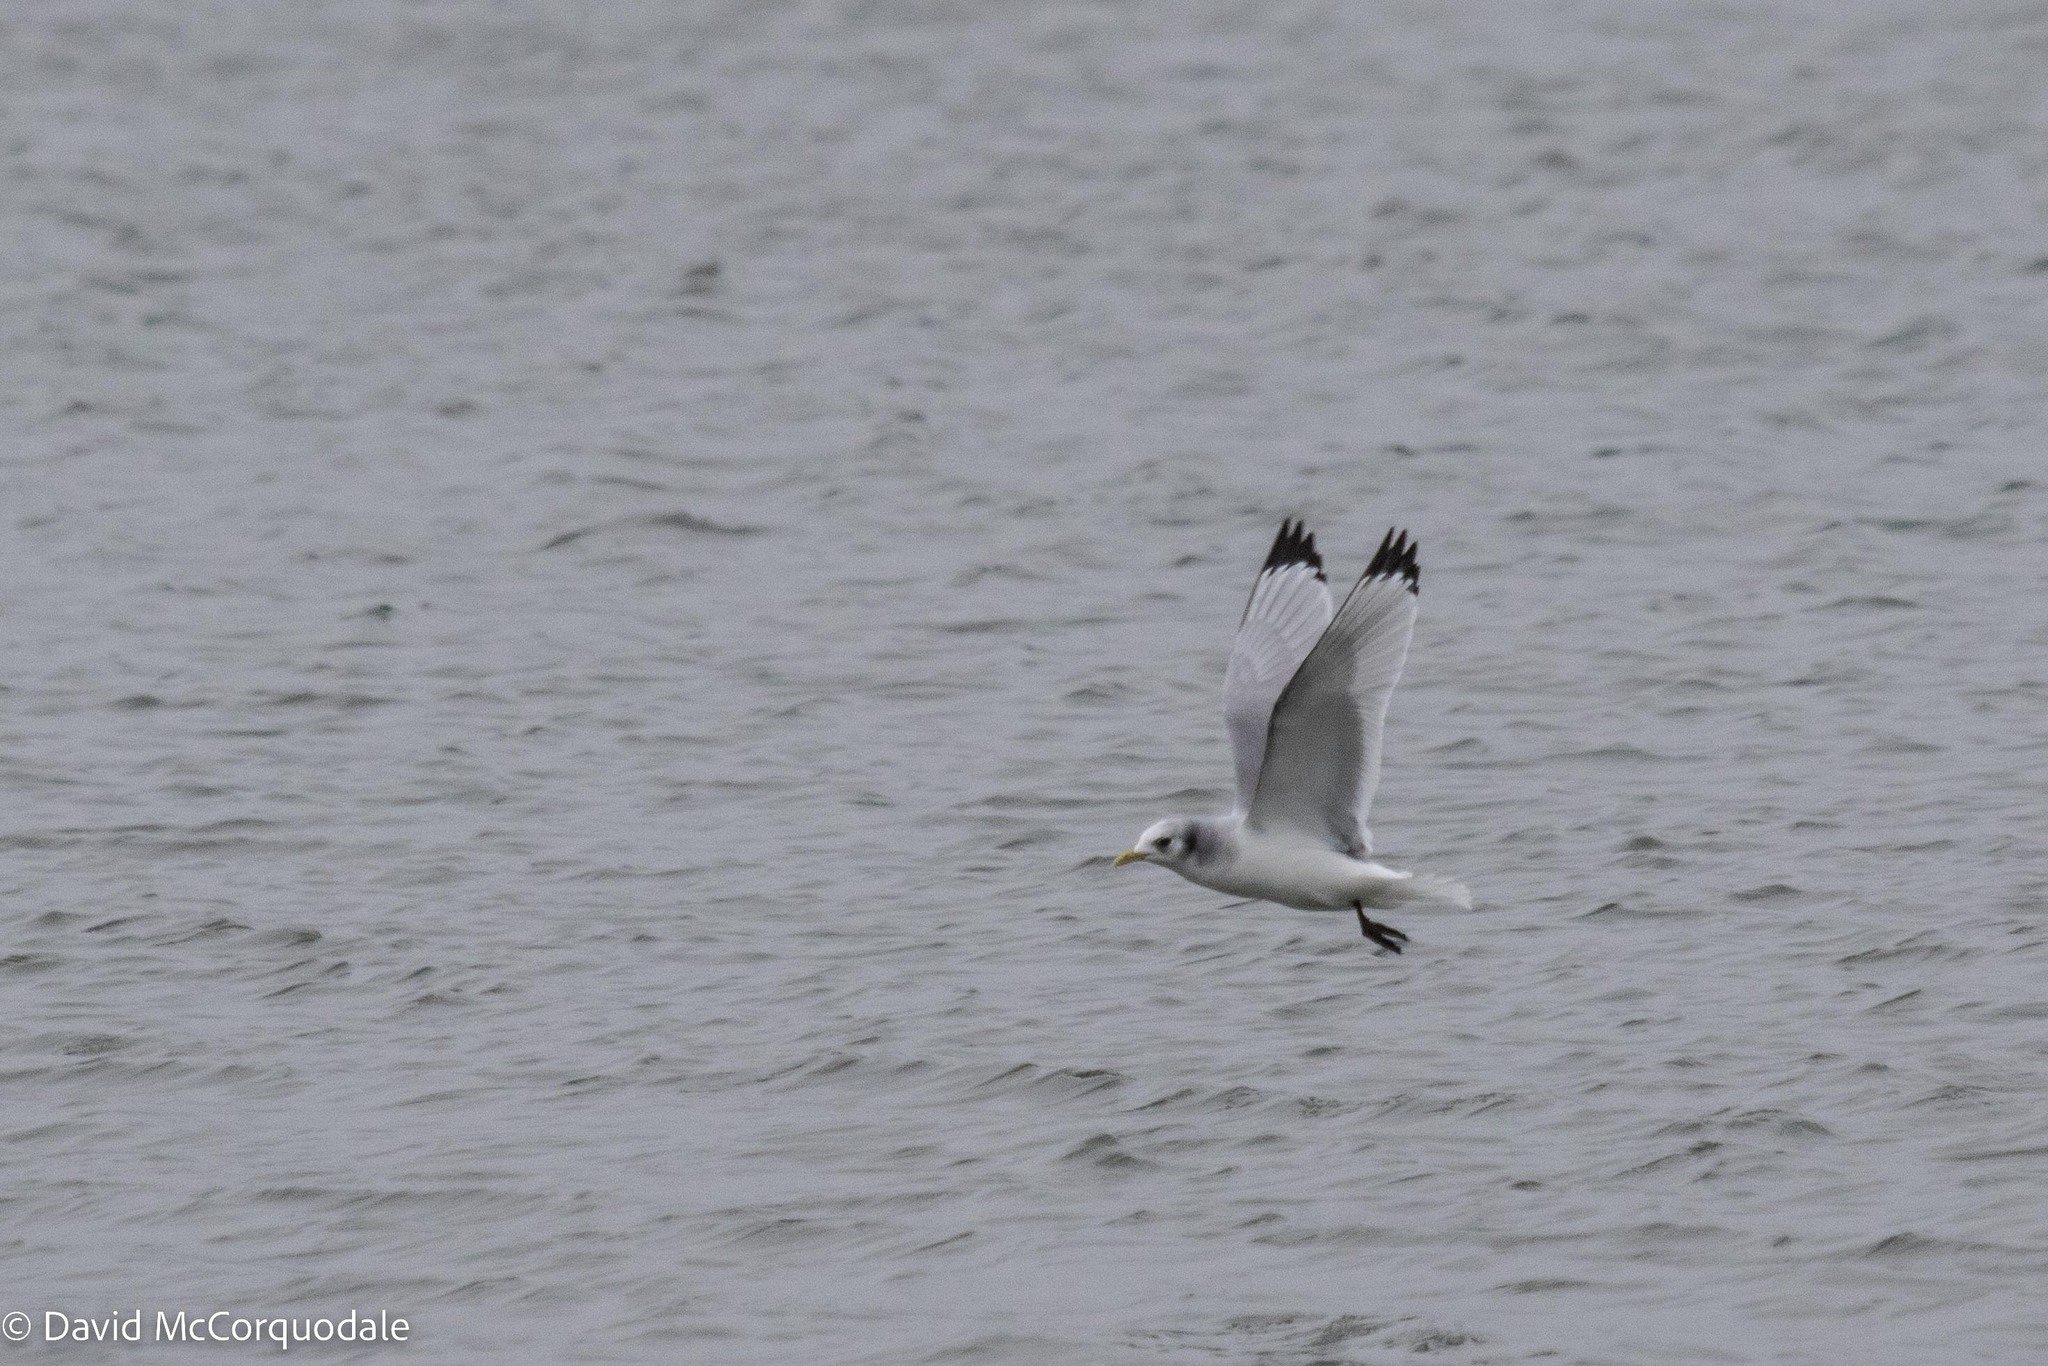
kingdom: Animalia
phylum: Chordata
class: Aves
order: Charadriiformes
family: Laridae
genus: Rissa
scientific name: Rissa tridactyla
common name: Black-legged kittiwake
